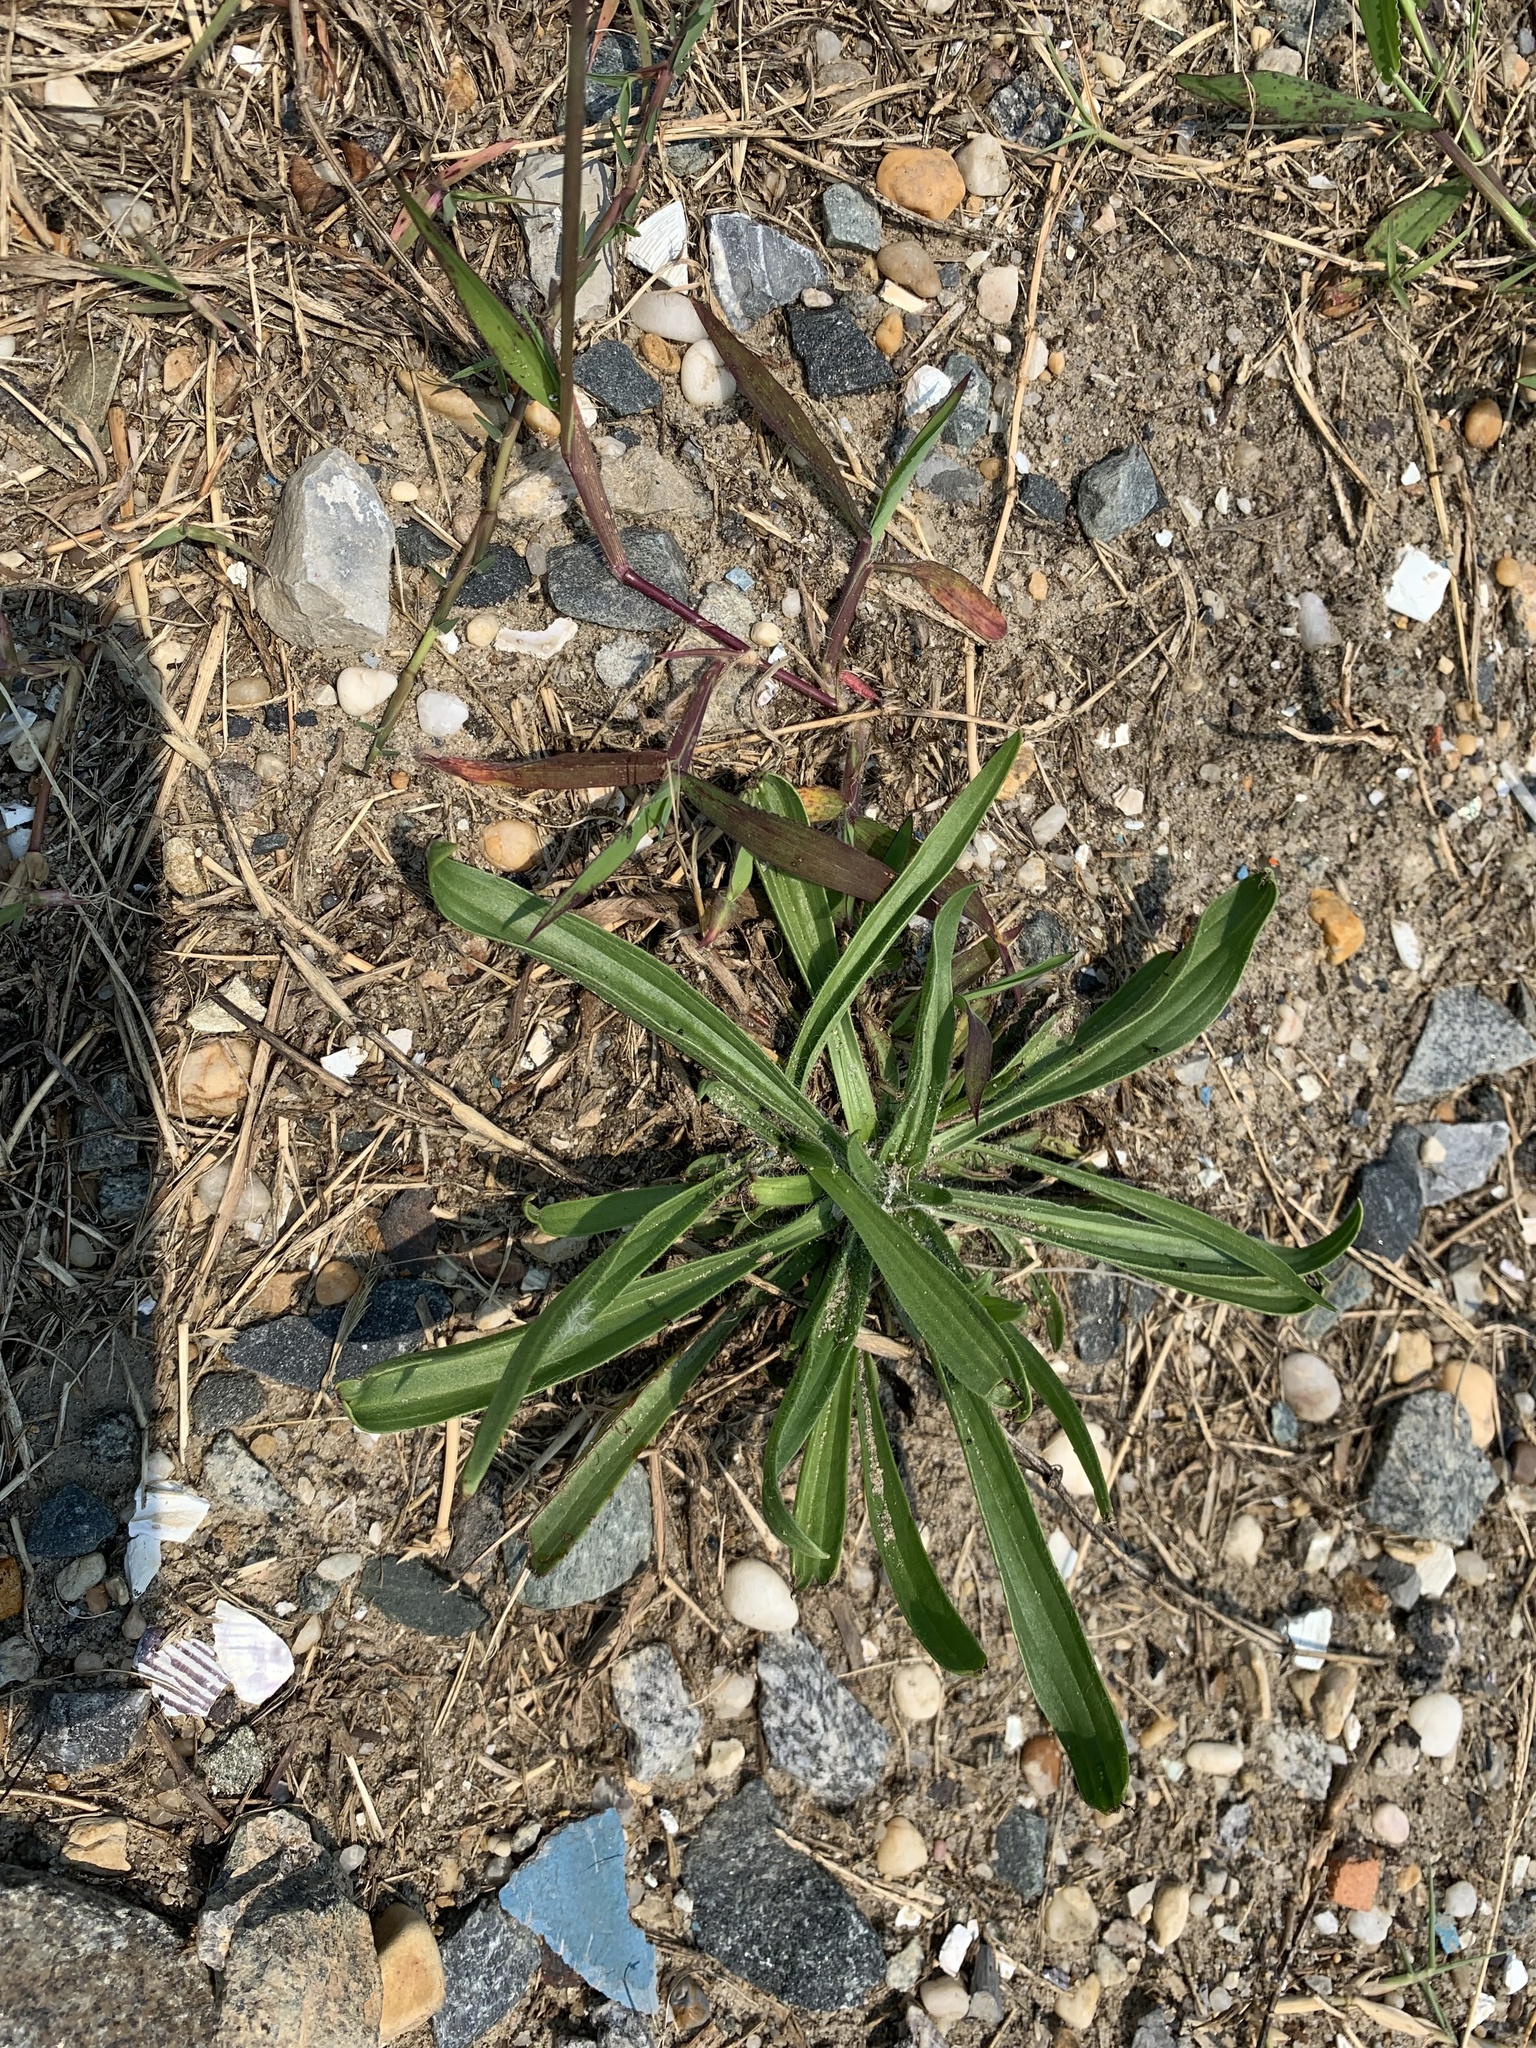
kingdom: Plantae
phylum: Tracheophyta
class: Magnoliopsida
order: Lamiales
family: Plantaginaceae
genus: Plantago
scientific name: Plantago lanceolata
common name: Ribwort plantain
